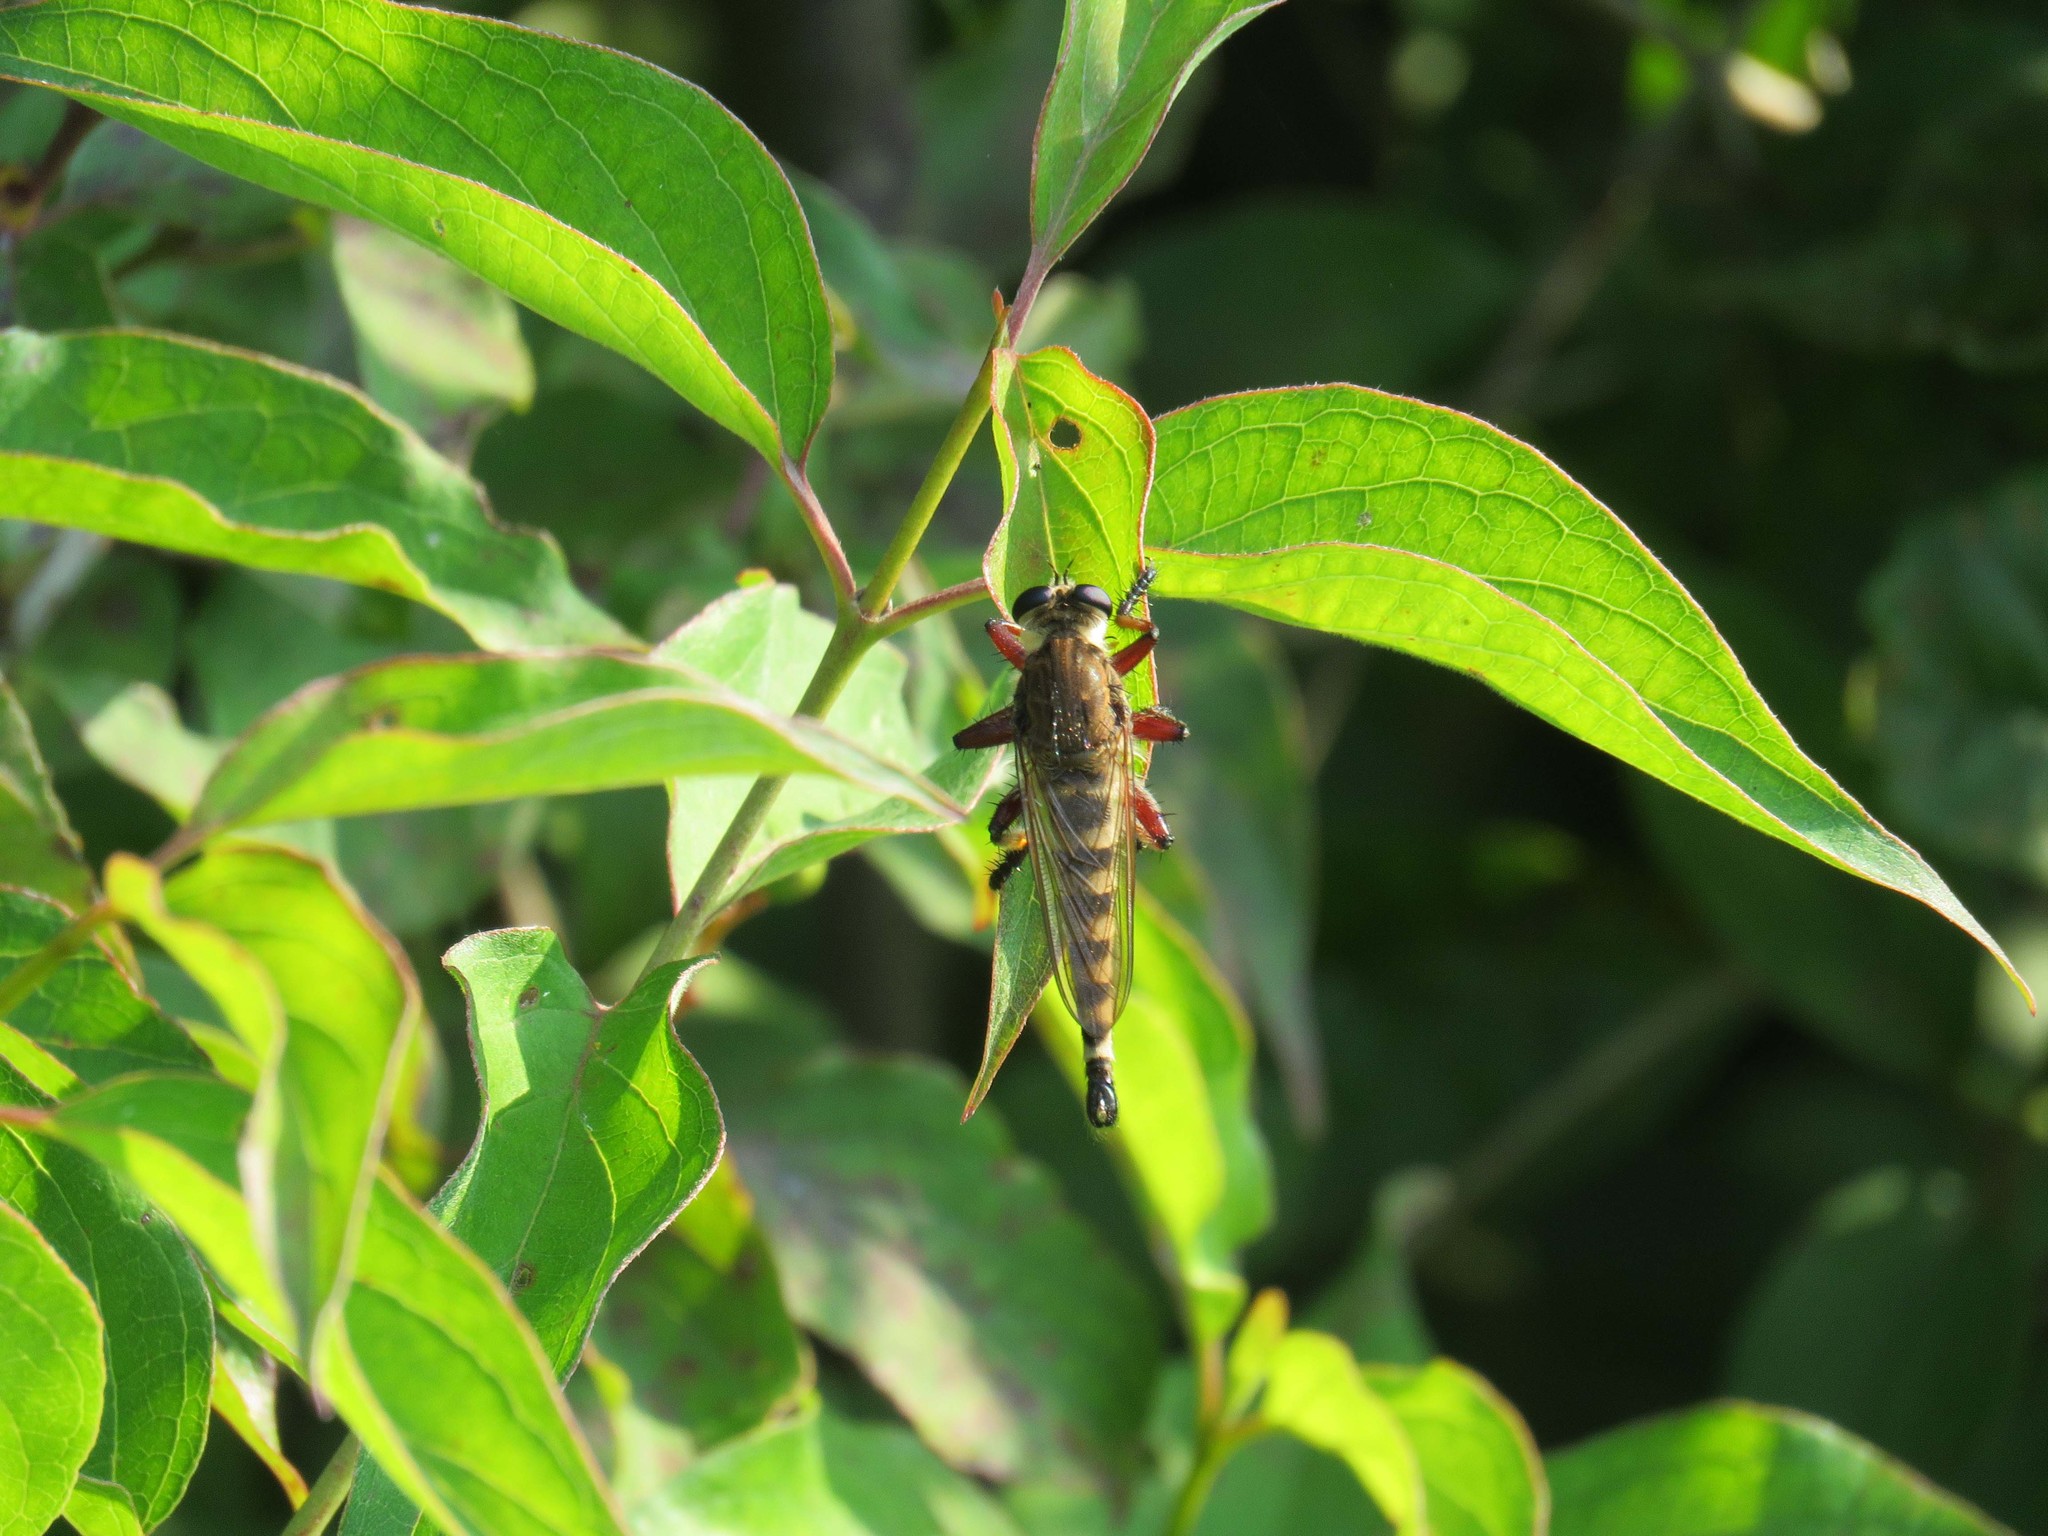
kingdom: Animalia
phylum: Arthropoda
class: Insecta
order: Diptera
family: Asilidae
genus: Promachus
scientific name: Promachus hinei
